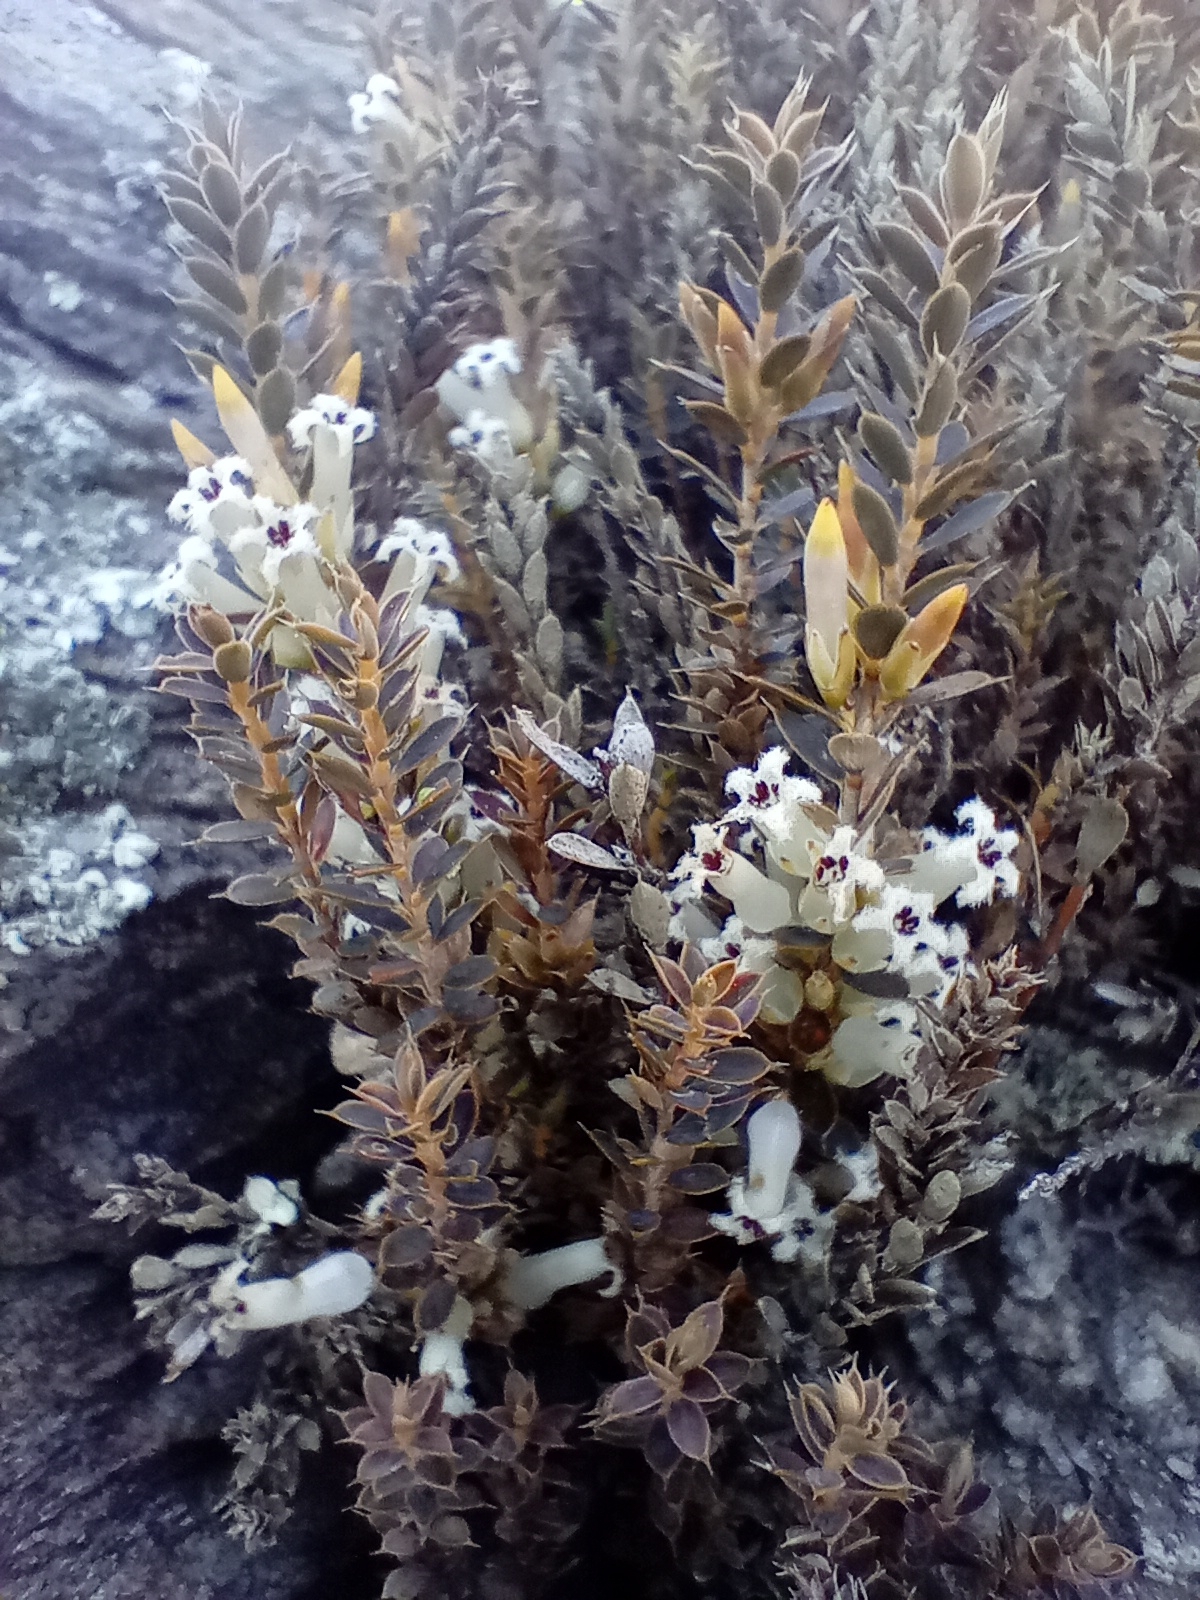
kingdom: Plantae
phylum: Tracheophyta
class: Magnoliopsida
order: Ericales
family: Ericaceae
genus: Styphelia
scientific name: Styphelia nesophila
